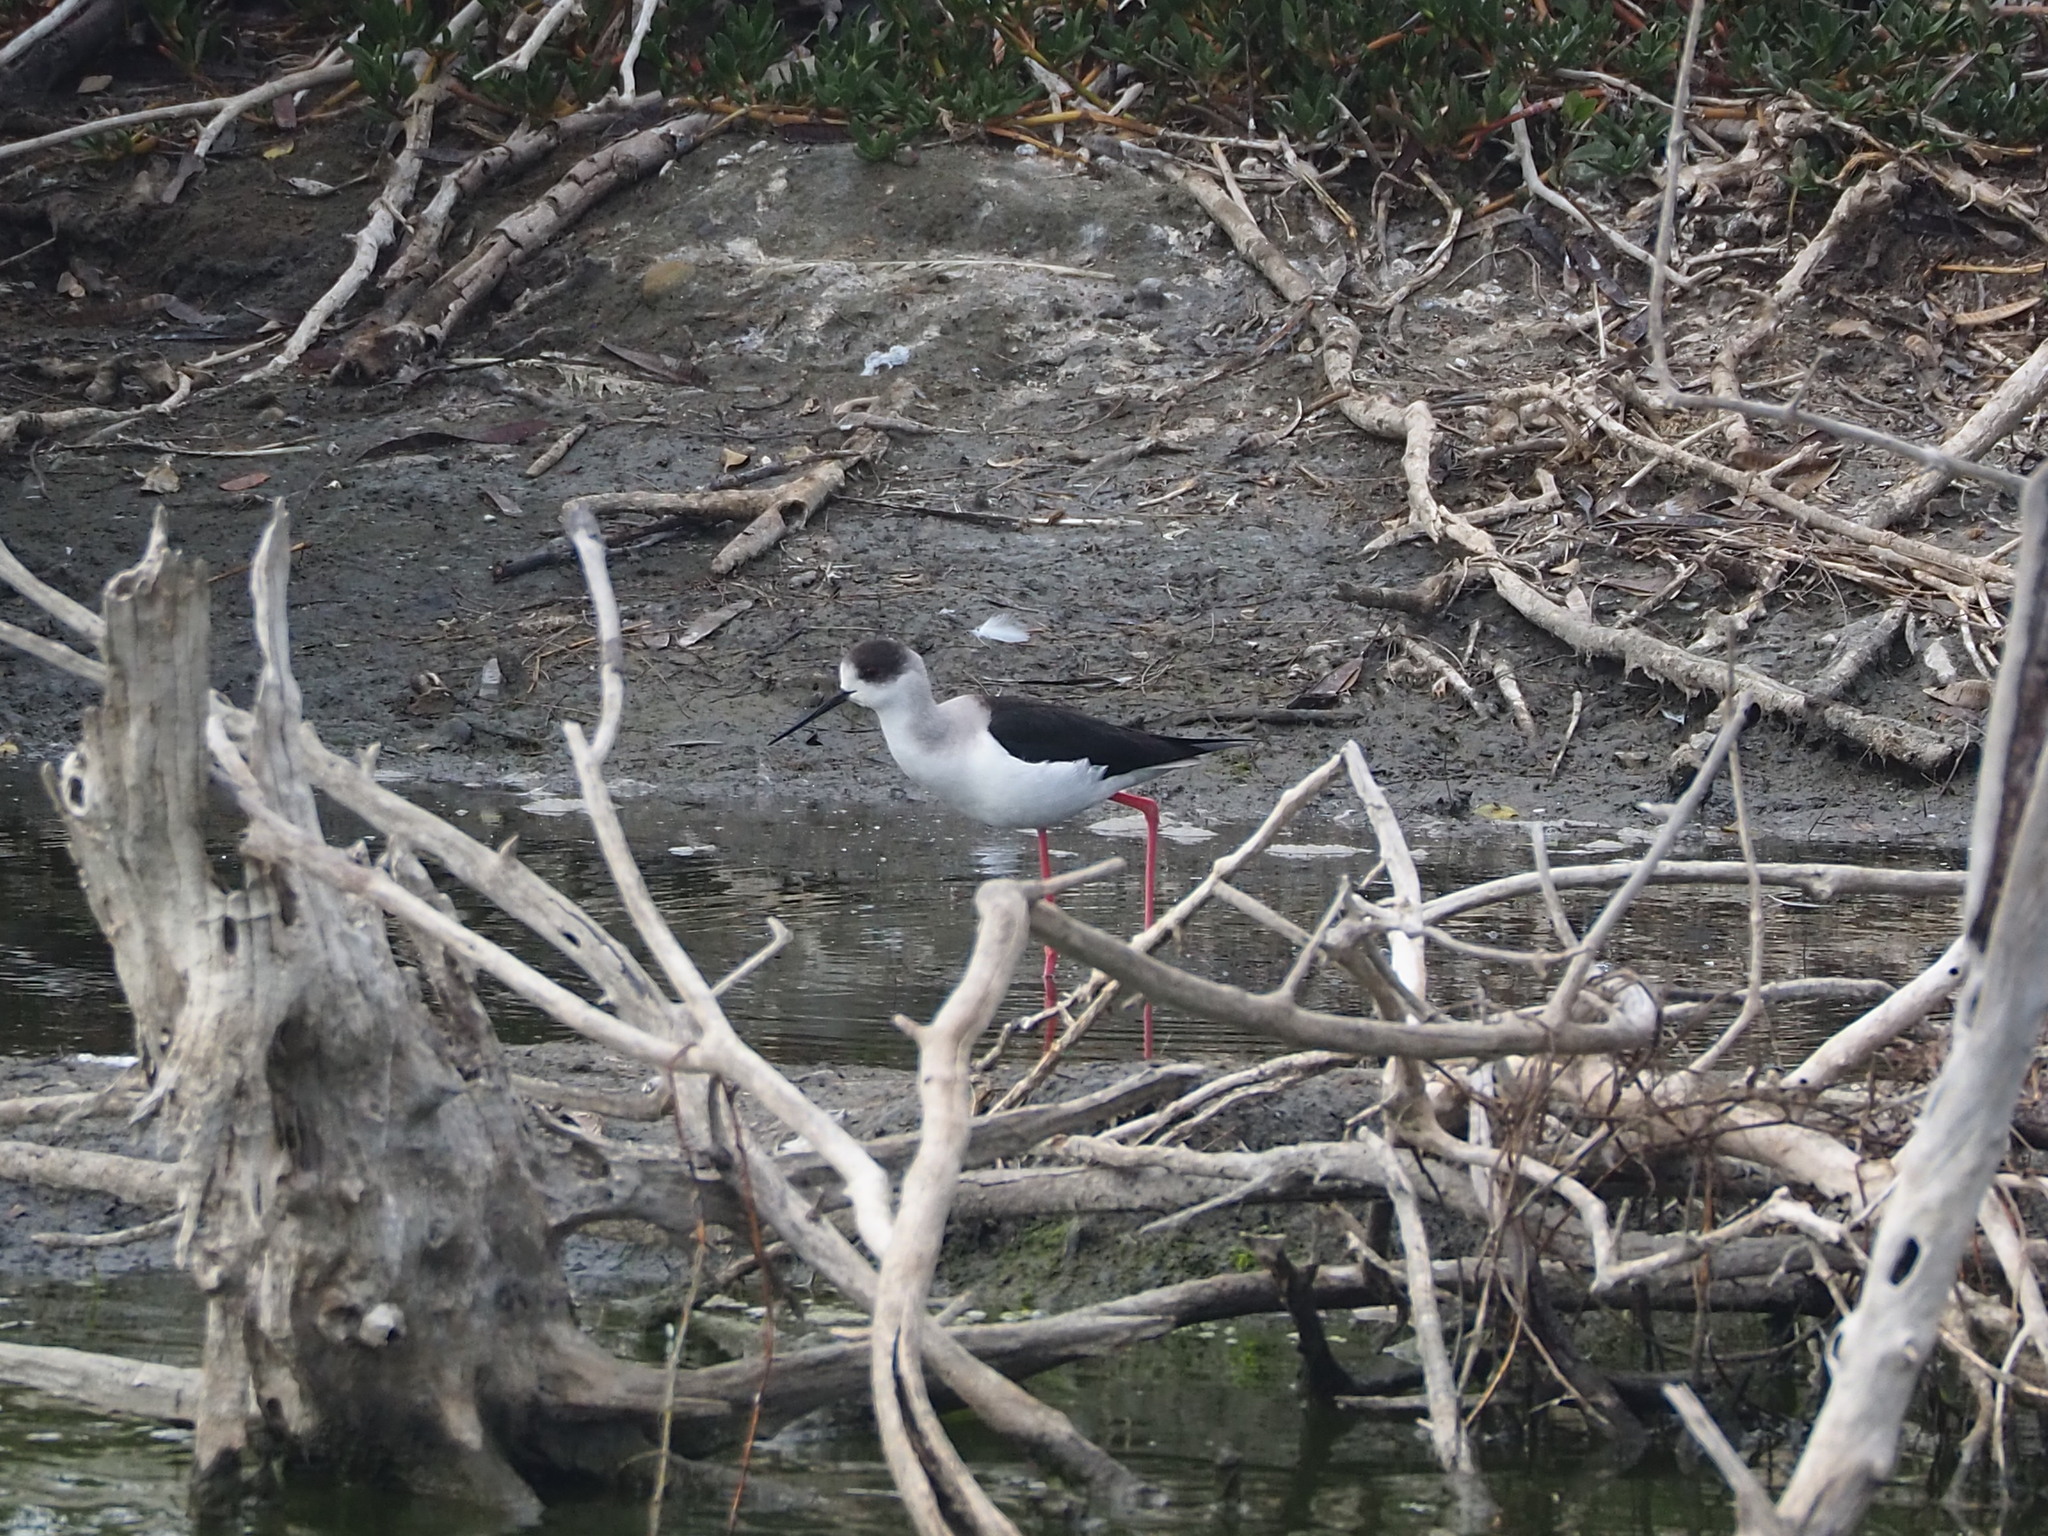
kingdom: Animalia
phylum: Chordata
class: Aves
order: Charadriiformes
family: Recurvirostridae
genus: Himantopus
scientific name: Himantopus himantopus
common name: Black-winged stilt
